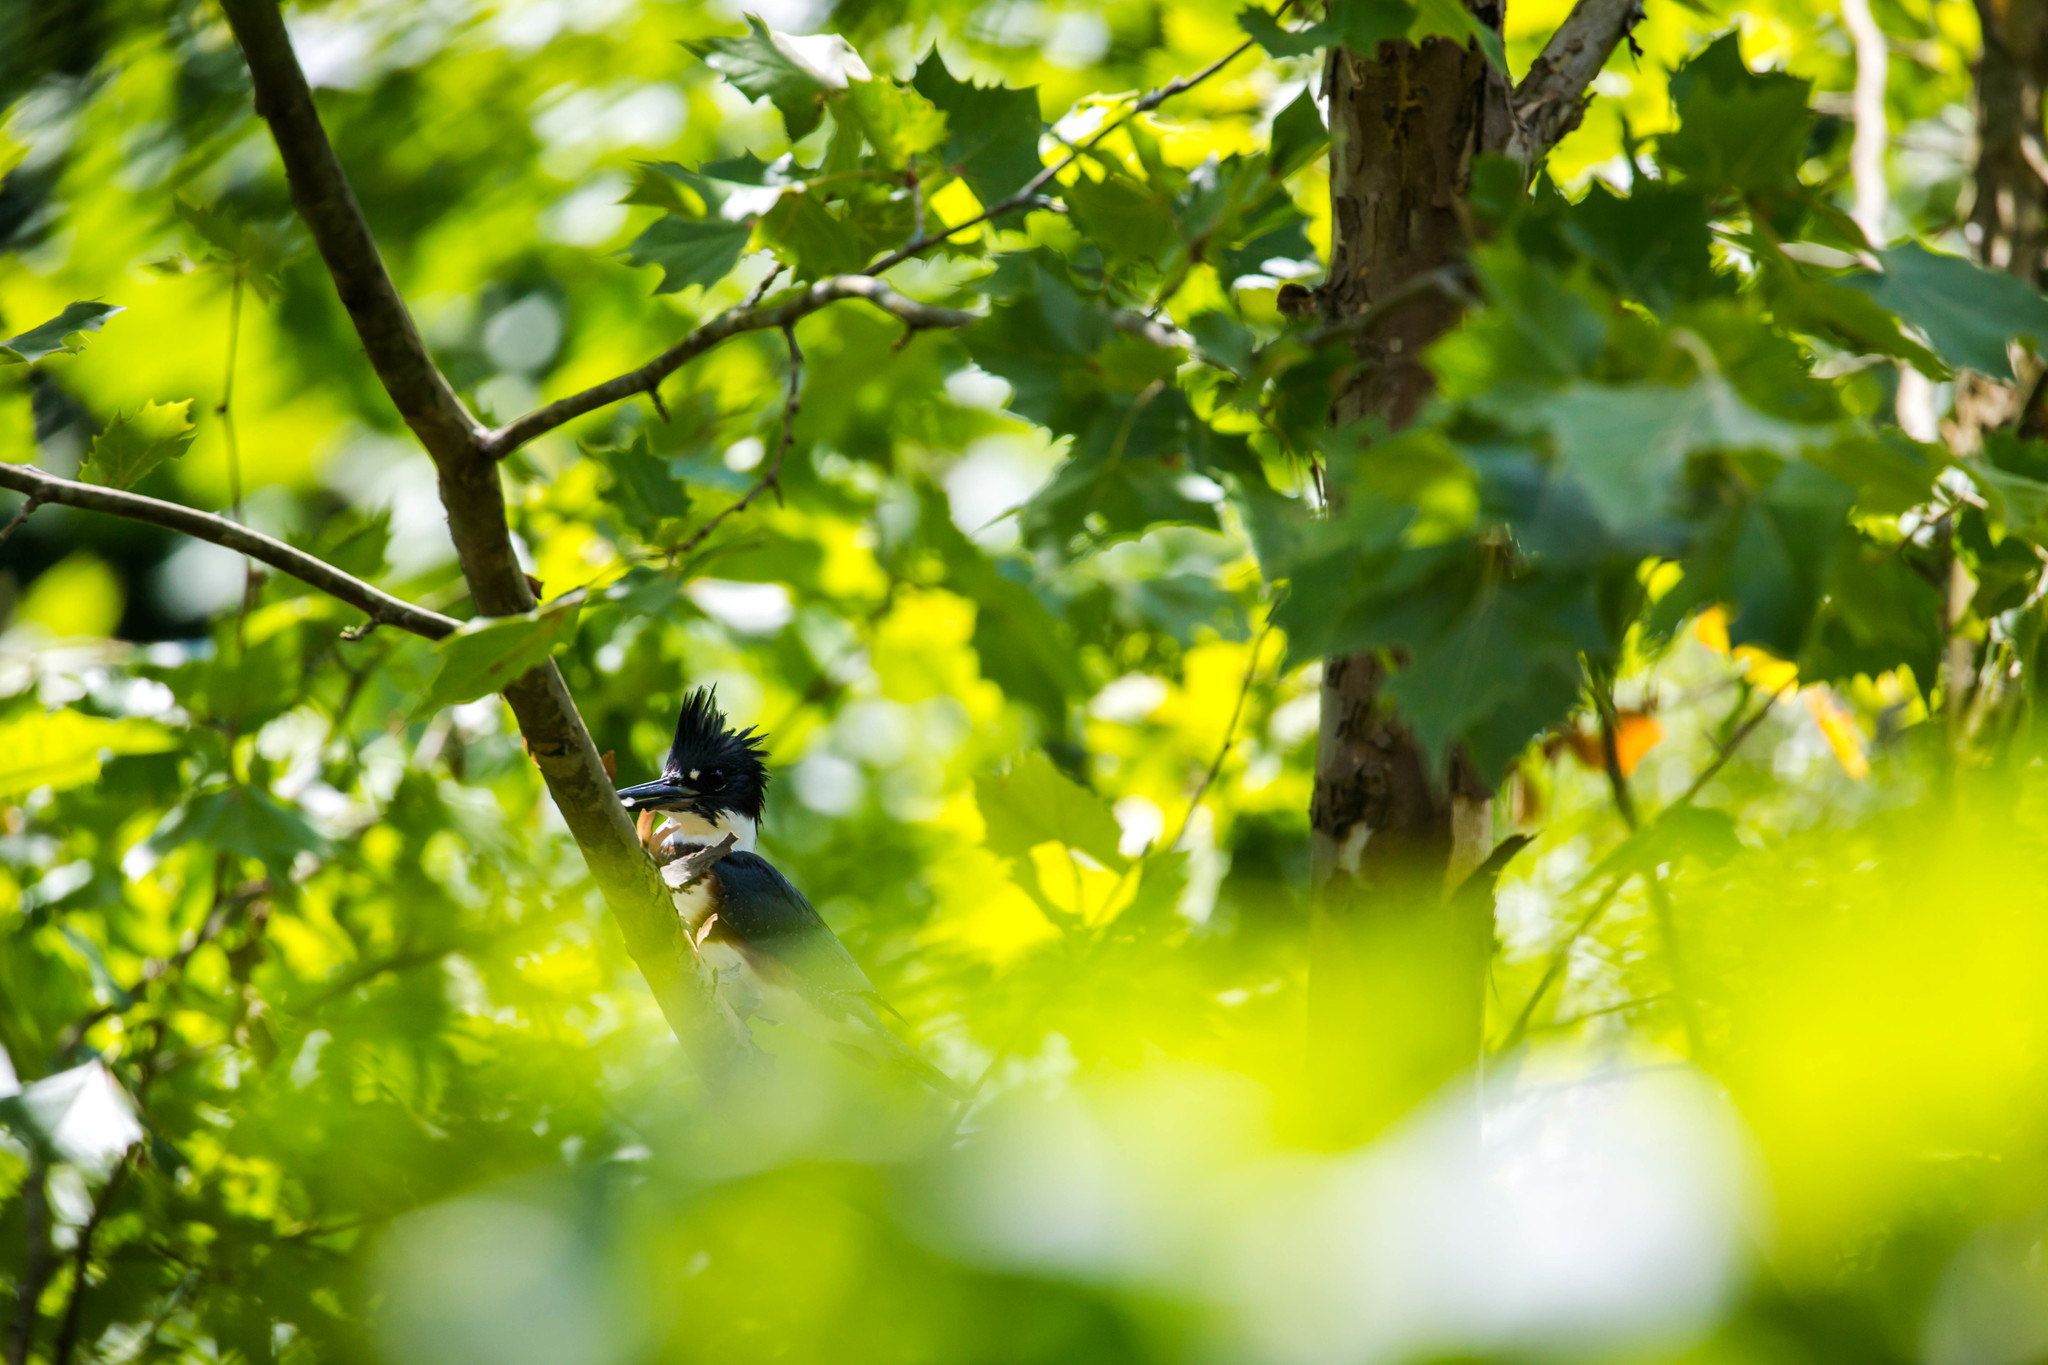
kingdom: Animalia
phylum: Chordata
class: Aves
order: Coraciiformes
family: Alcedinidae
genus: Megaceryle
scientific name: Megaceryle alcyon
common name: Belted kingfisher
